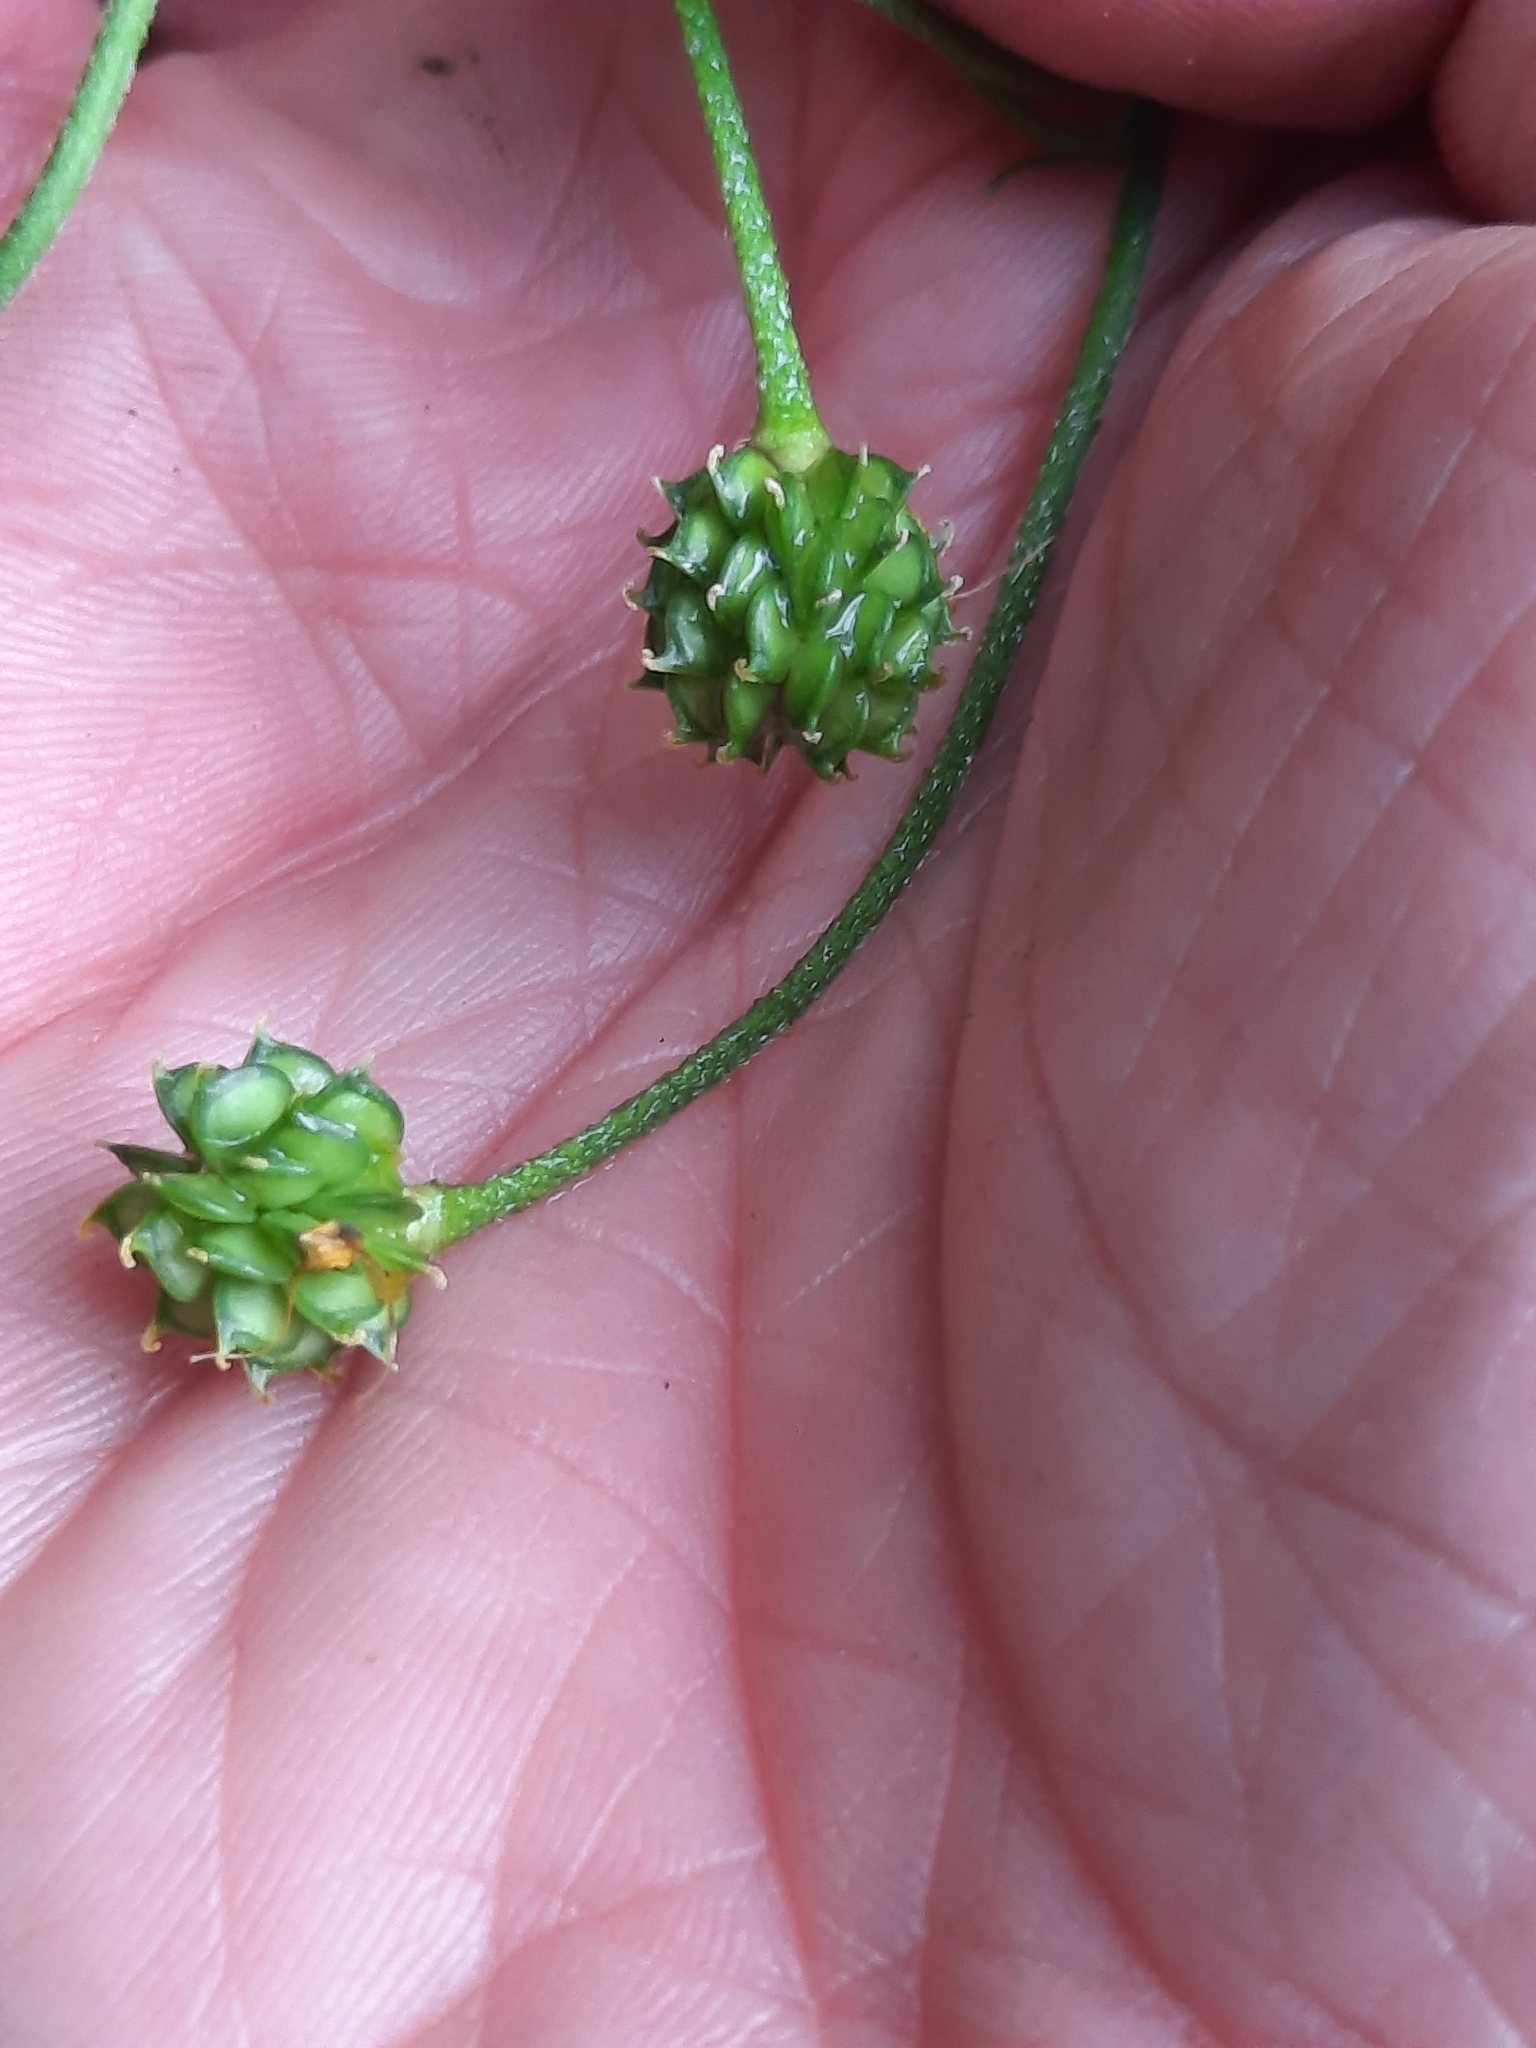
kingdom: Plantae
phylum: Tracheophyta
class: Magnoliopsida
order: Ranunculales
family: Ranunculaceae
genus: Ranunculus
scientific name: Ranunculus acris
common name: Meadow buttercup
